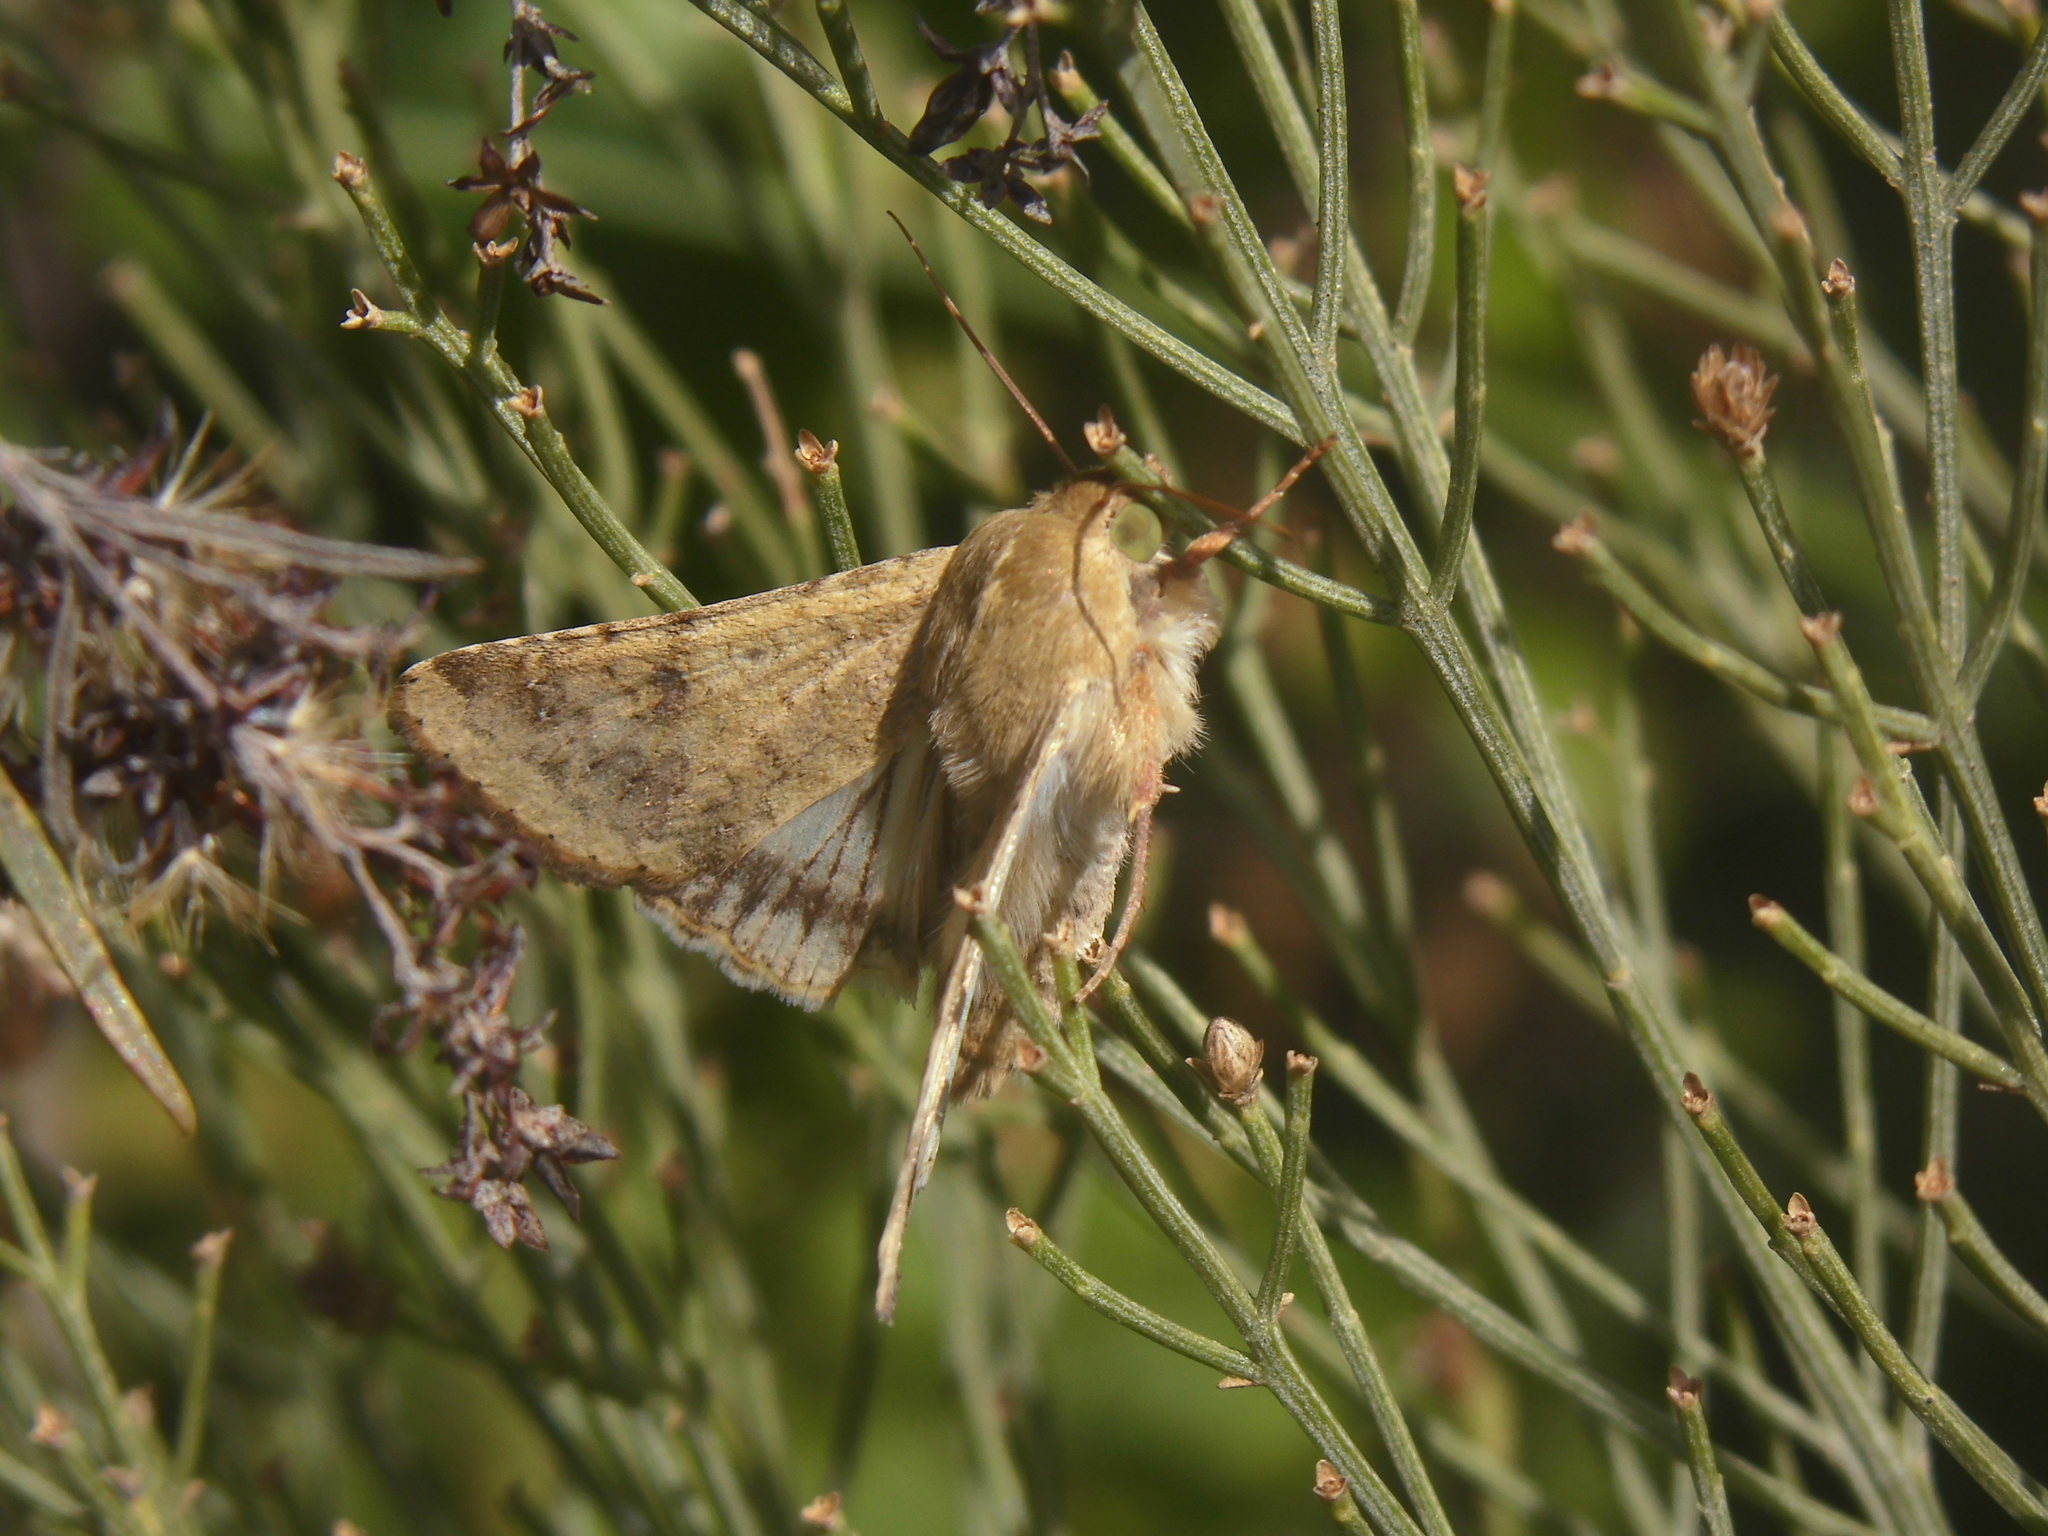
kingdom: Animalia
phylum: Arthropoda
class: Insecta
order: Lepidoptera
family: Noctuidae
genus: Helicoverpa
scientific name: Helicoverpa
